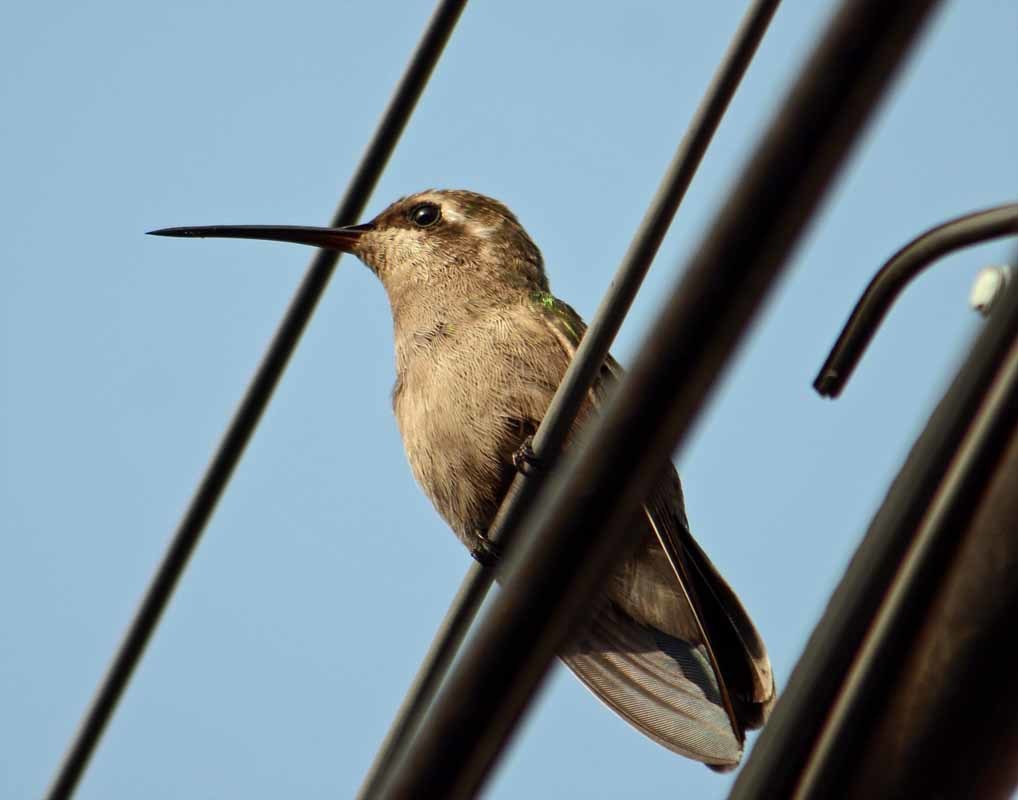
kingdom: Animalia
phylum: Chordata
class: Aves
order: Apodiformes
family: Trochilidae
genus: Cynanthus
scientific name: Cynanthus latirostris
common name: Broad-billed hummingbird
